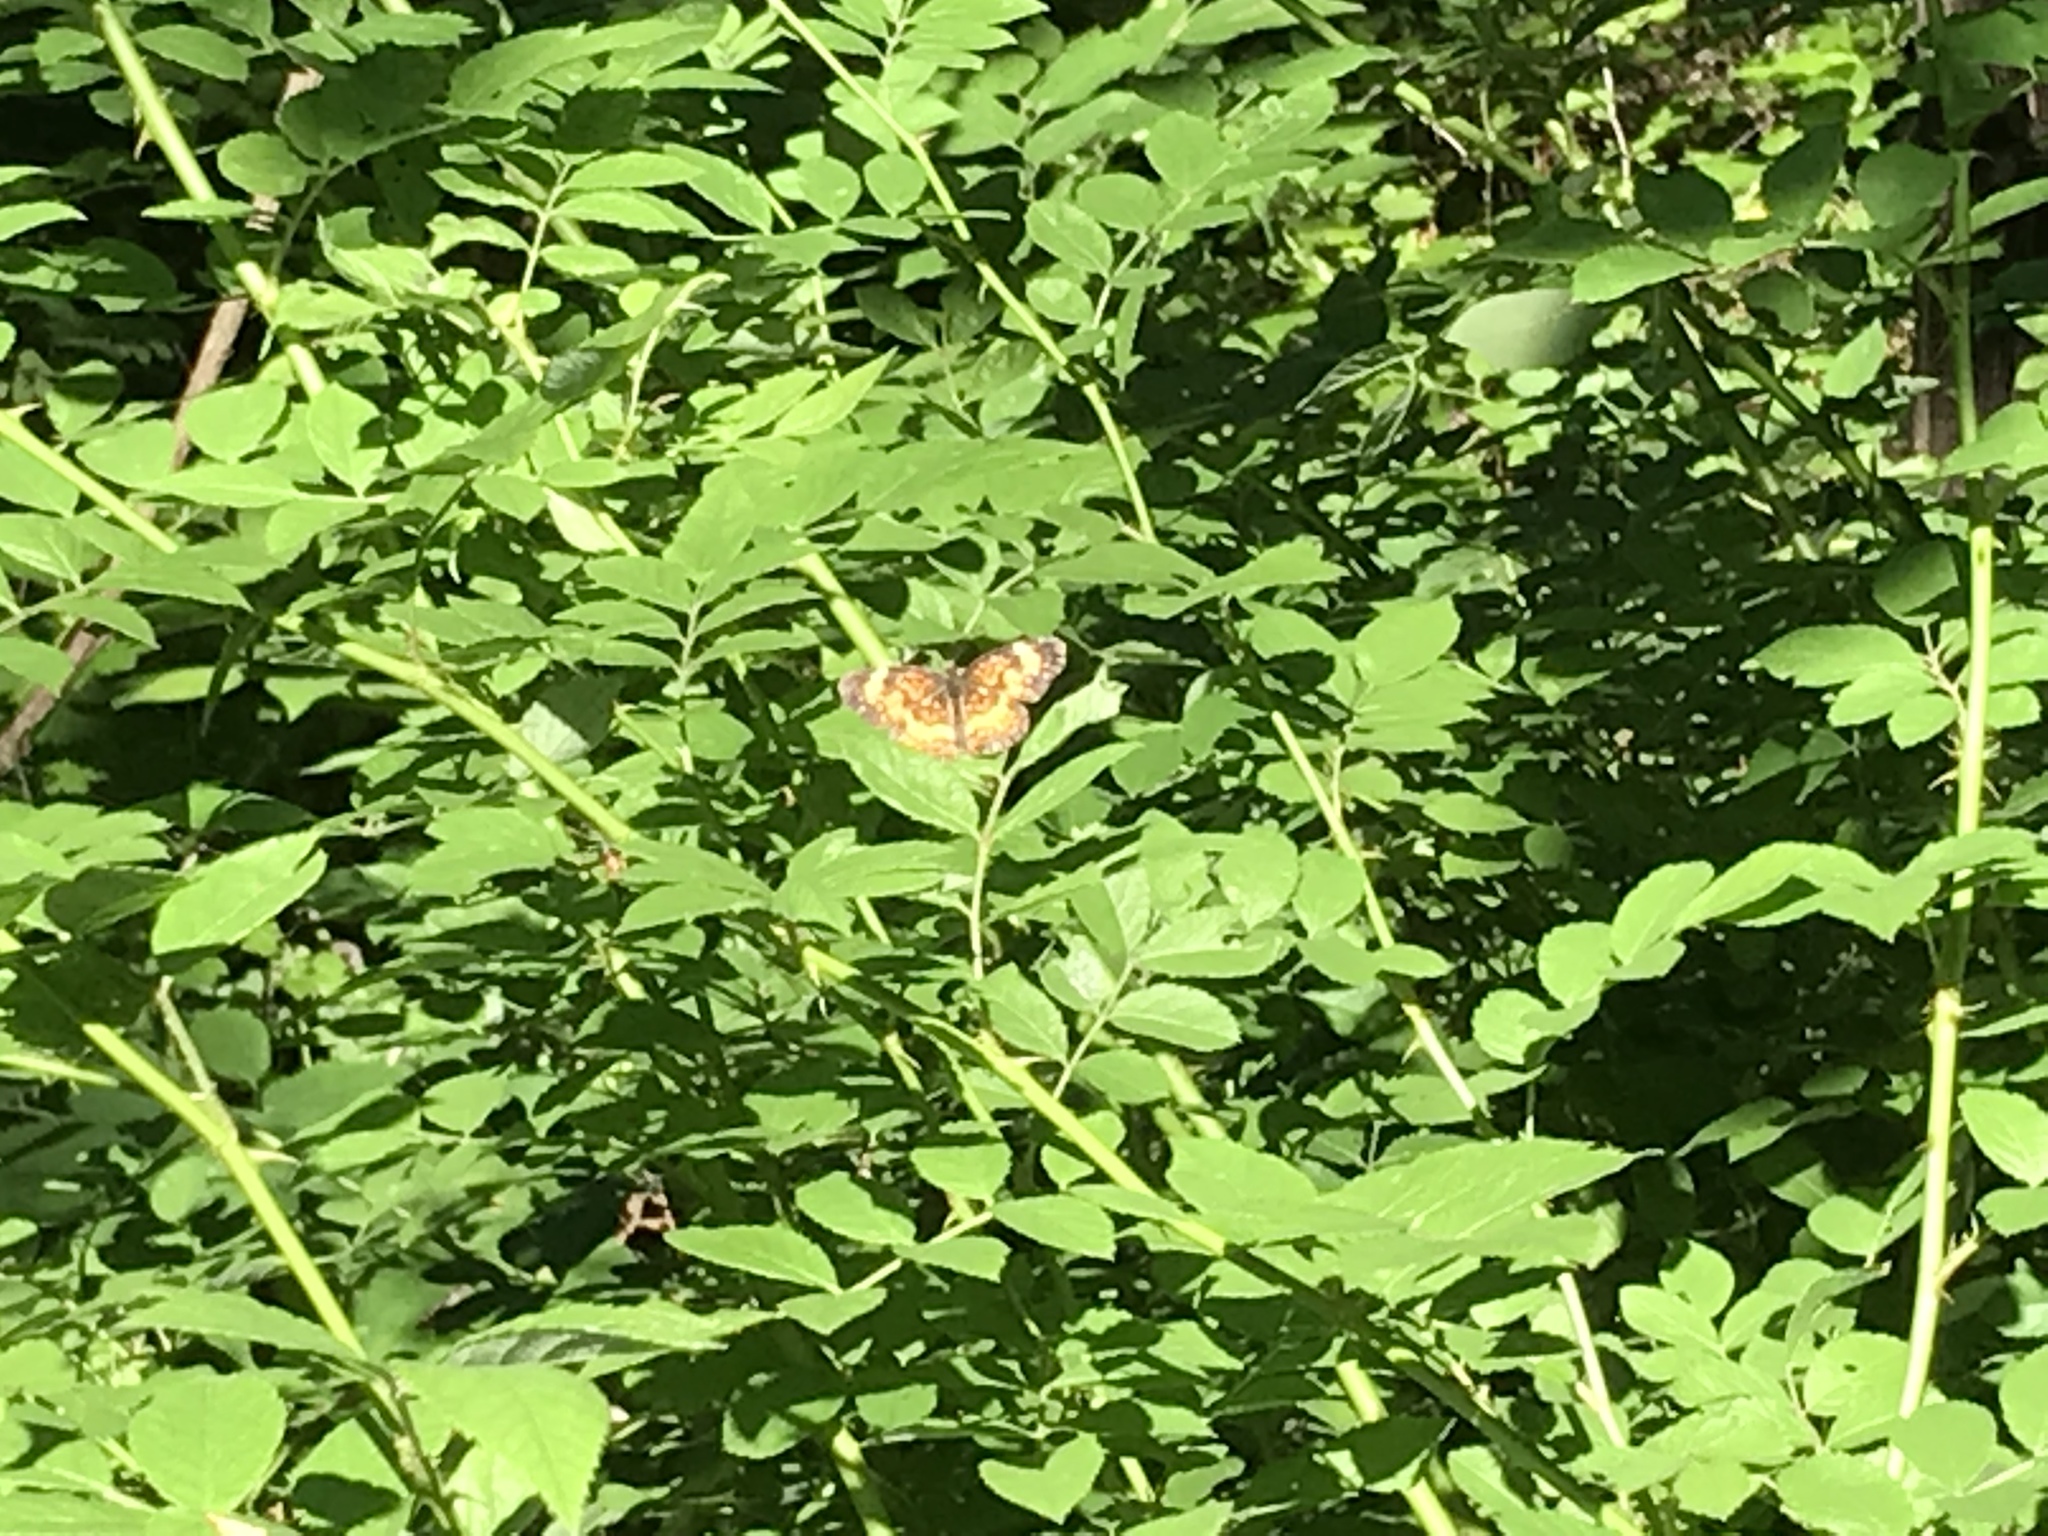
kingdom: Animalia
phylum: Arthropoda
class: Insecta
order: Lepidoptera
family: Nymphalidae
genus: Phyciodes
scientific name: Phyciodes tharos
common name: Pearl crescent
